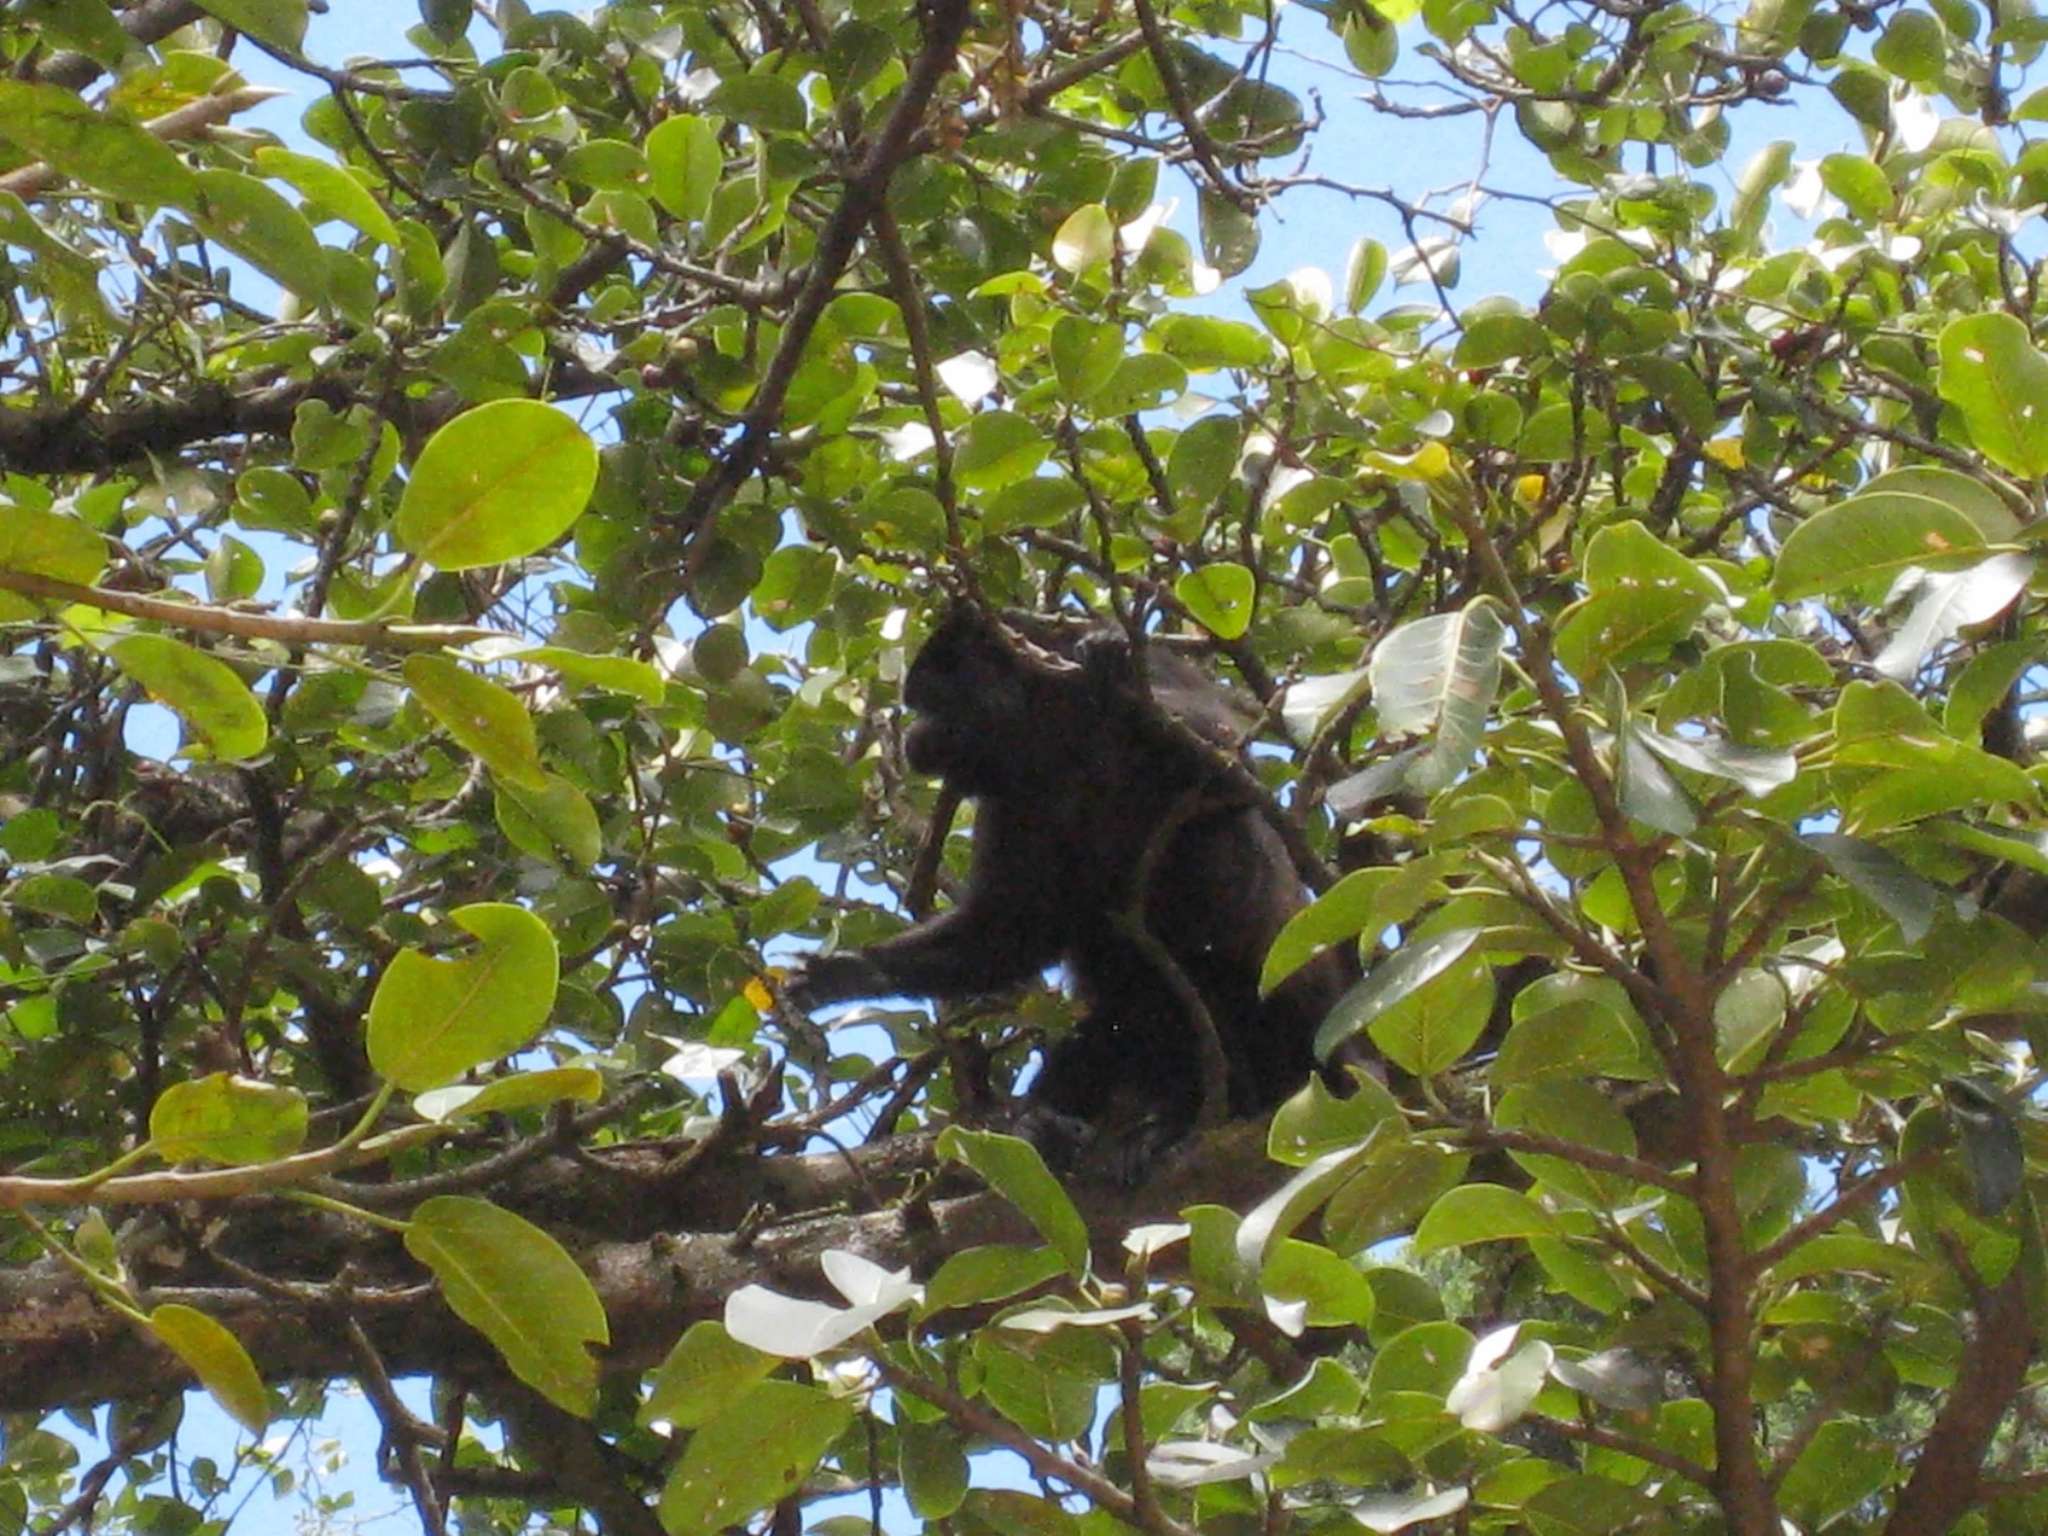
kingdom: Animalia
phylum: Chordata
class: Mammalia
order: Primates
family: Atelidae
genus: Alouatta
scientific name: Alouatta palliata
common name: Mantled howler
